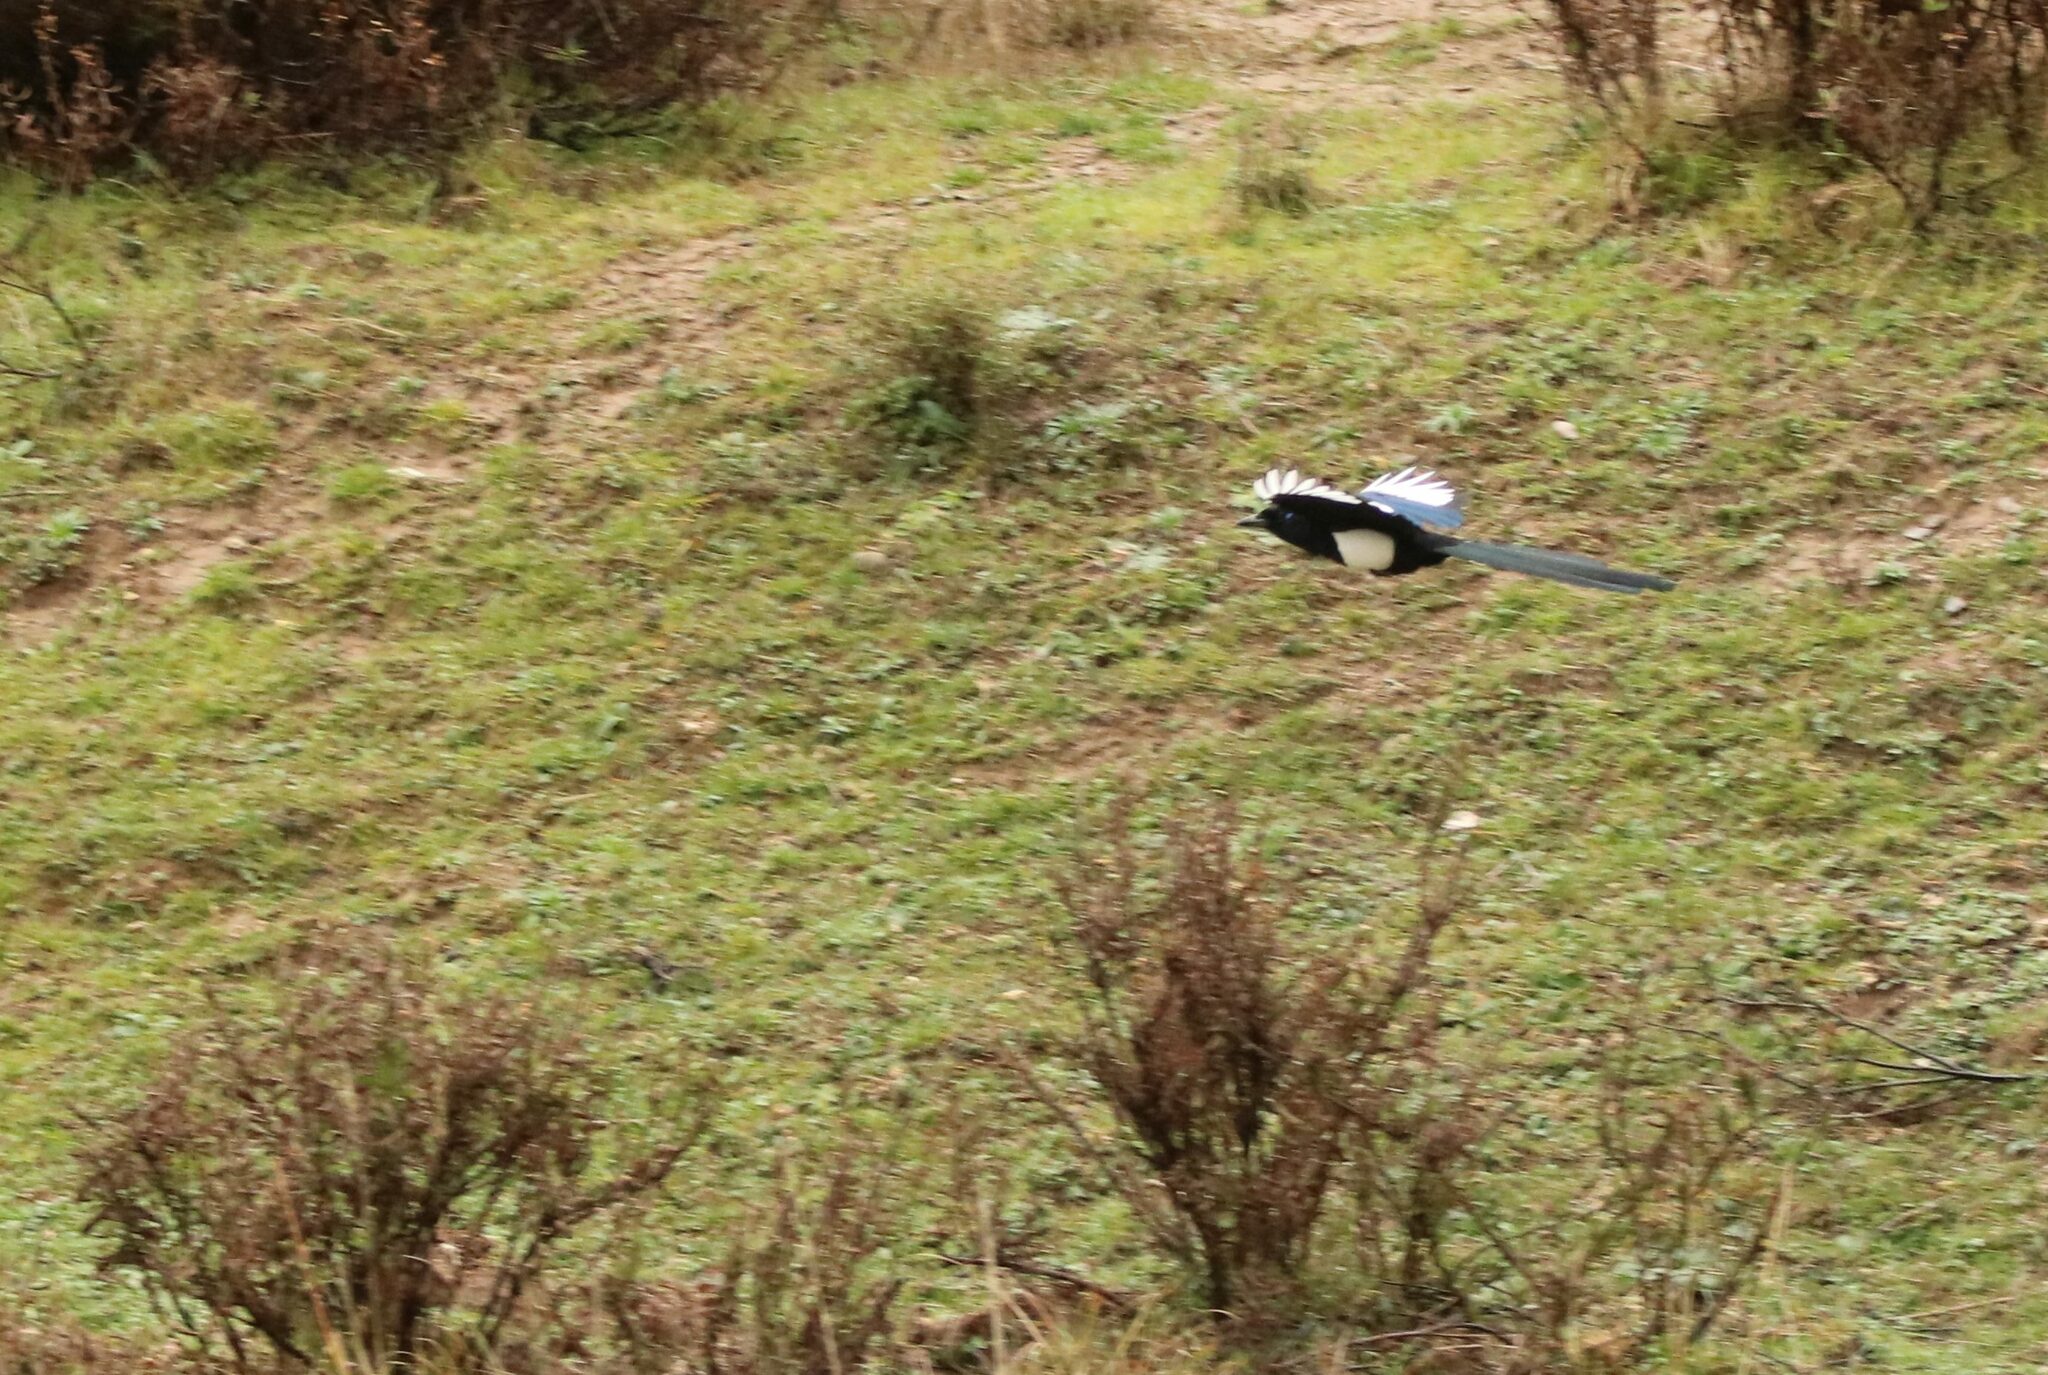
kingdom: Animalia
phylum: Chordata
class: Aves
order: Passeriformes
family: Corvidae
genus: Pica
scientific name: Pica mauritanica
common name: Maghreb magpie
